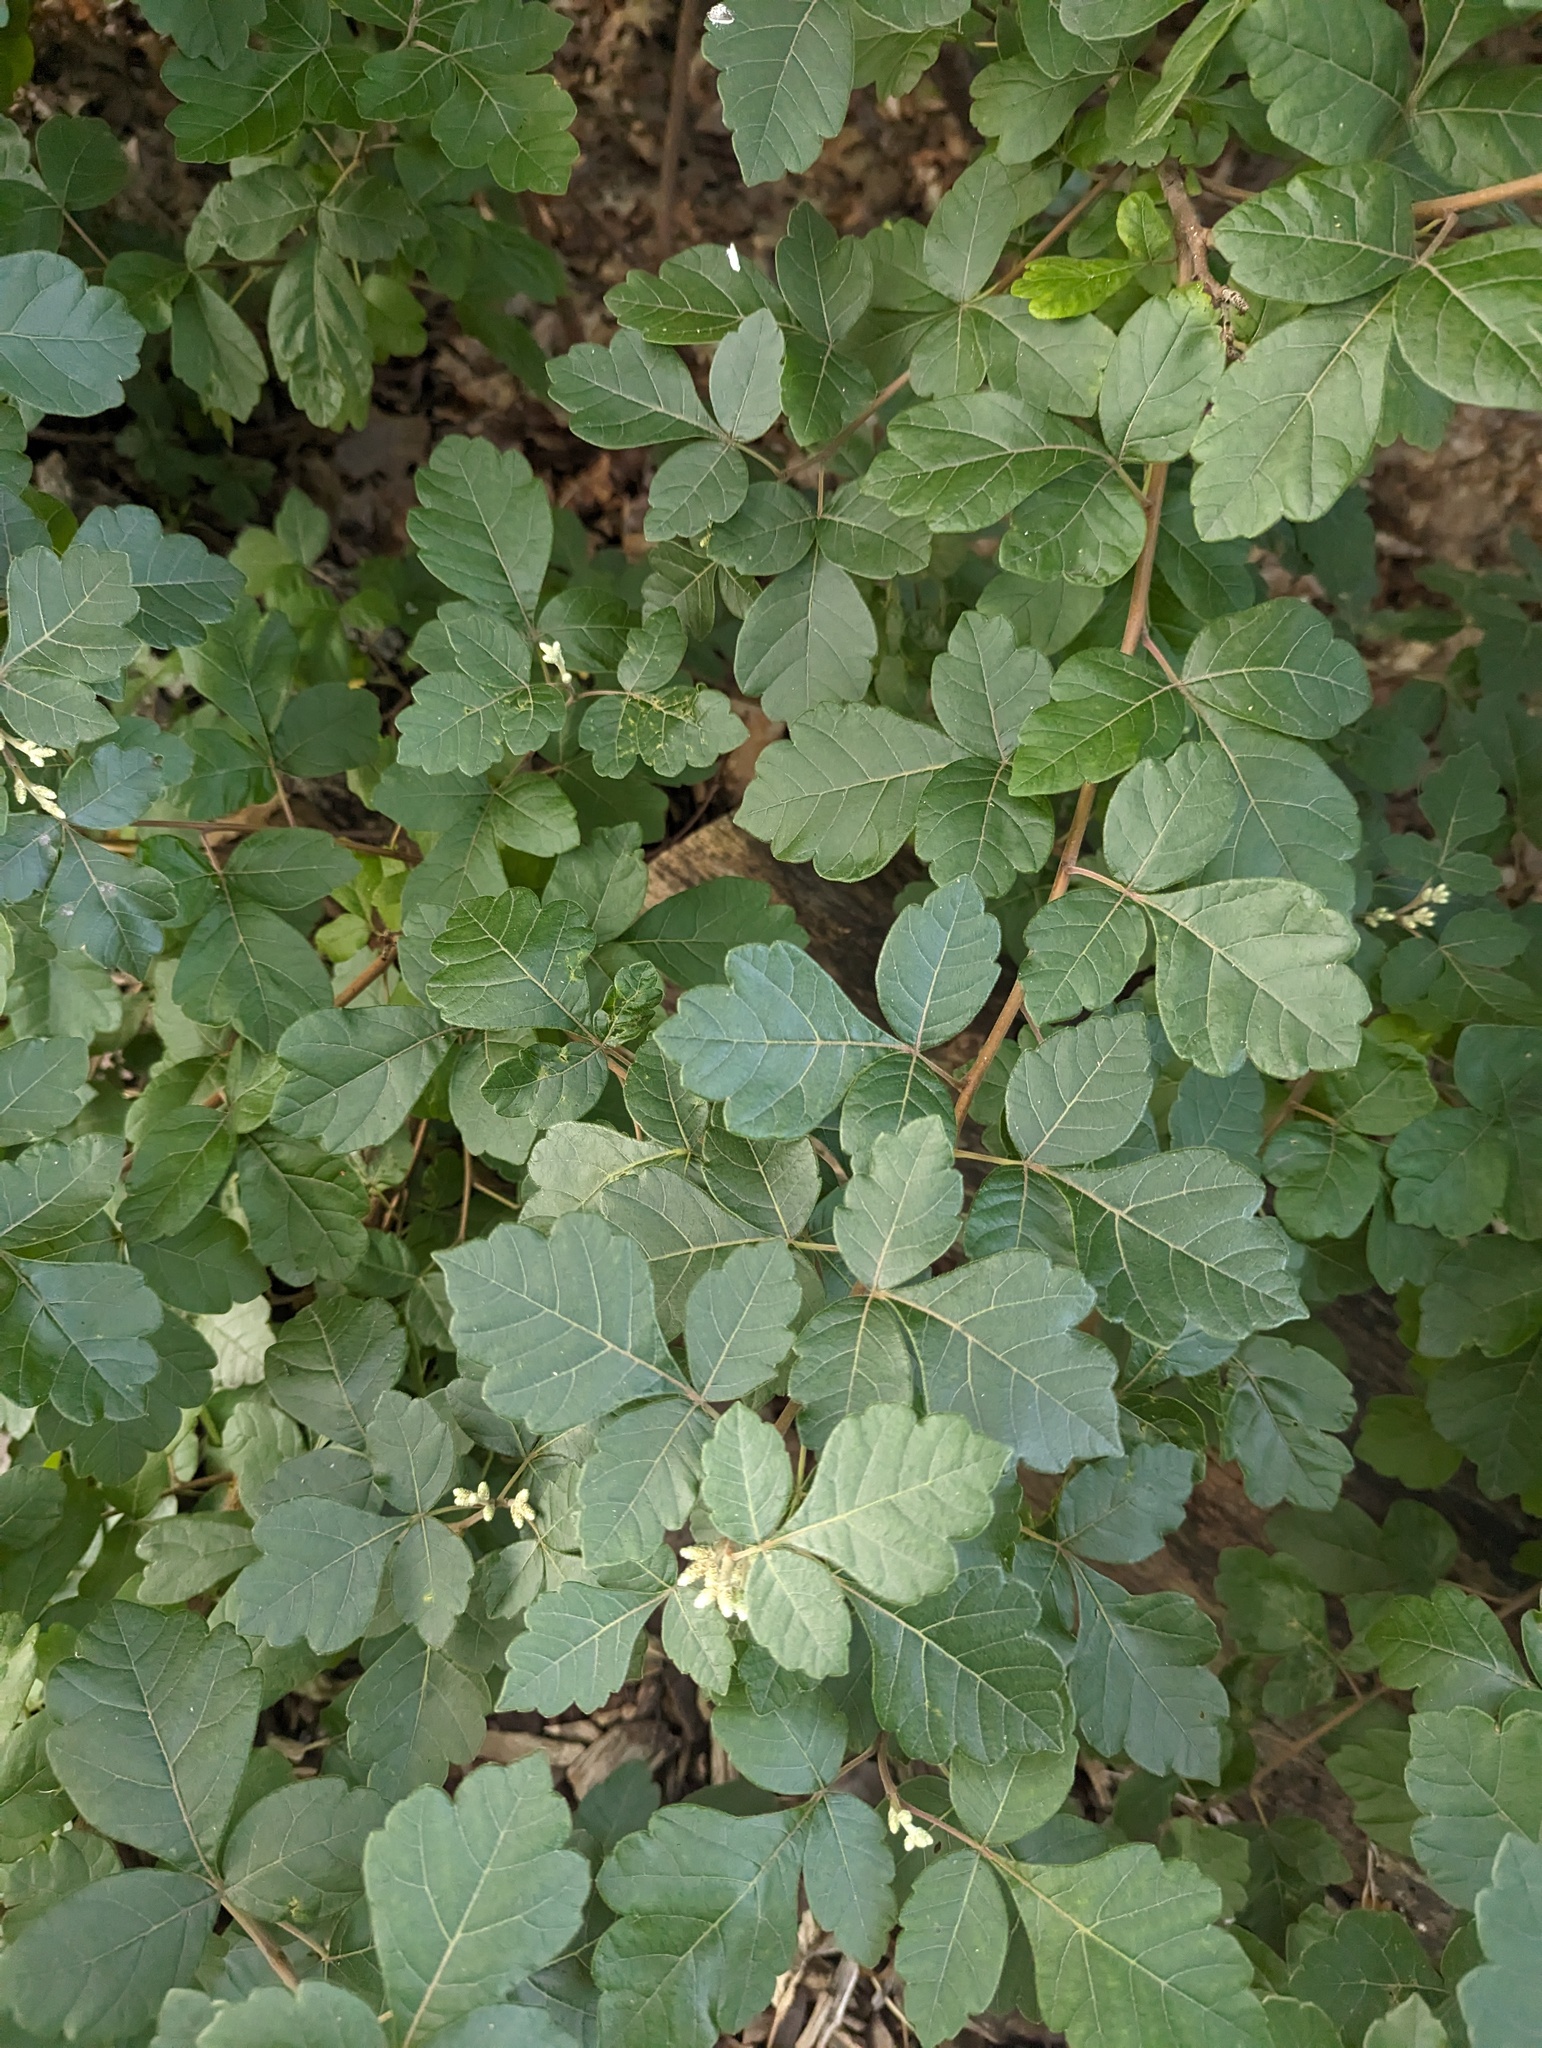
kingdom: Plantae
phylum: Tracheophyta
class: Magnoliopsida
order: Sapindales
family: Anacardiaceae
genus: Rhus
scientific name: Rhus aromatica
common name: Aromatic sumac
